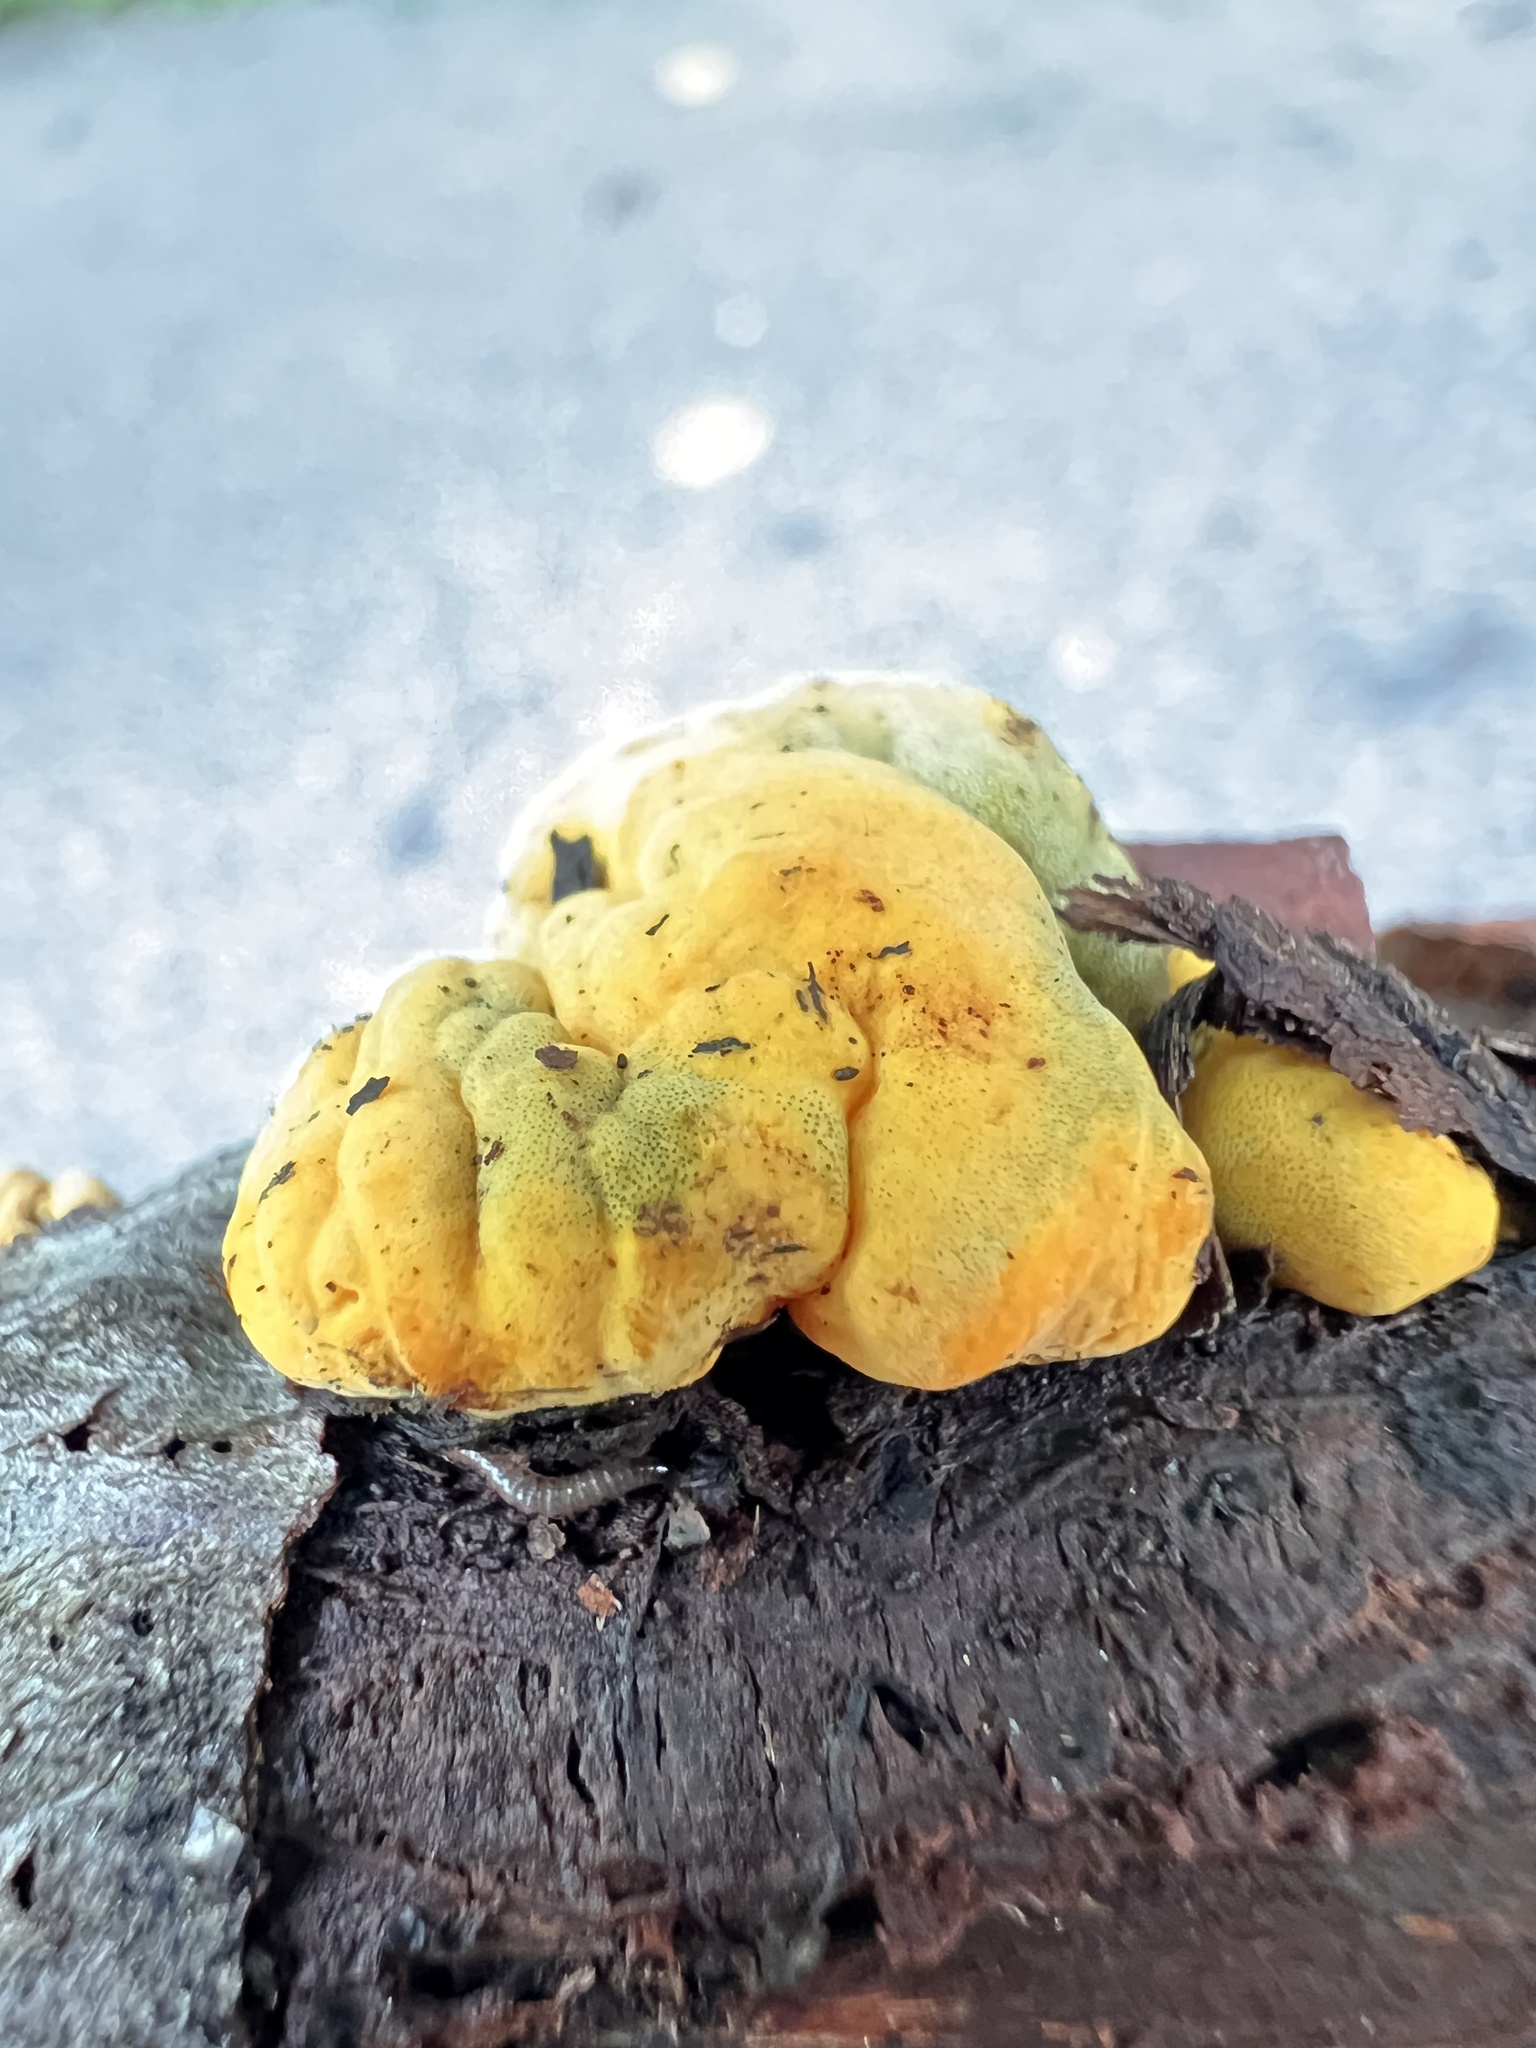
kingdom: Fungi
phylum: Ascomycota
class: Sordariomycetes
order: Xylariales
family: Hypoxylaceae
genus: Thuemenella
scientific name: Thuemenella cubispora
